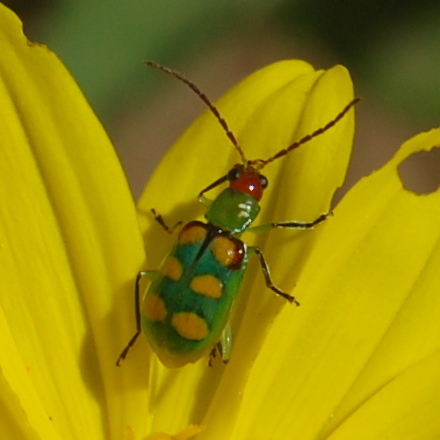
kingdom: Animalia
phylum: Arthropoda
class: Insecta
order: Coleoptera
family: Chrysomelidae
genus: Diabrotica
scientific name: Diabrotica speciosa
